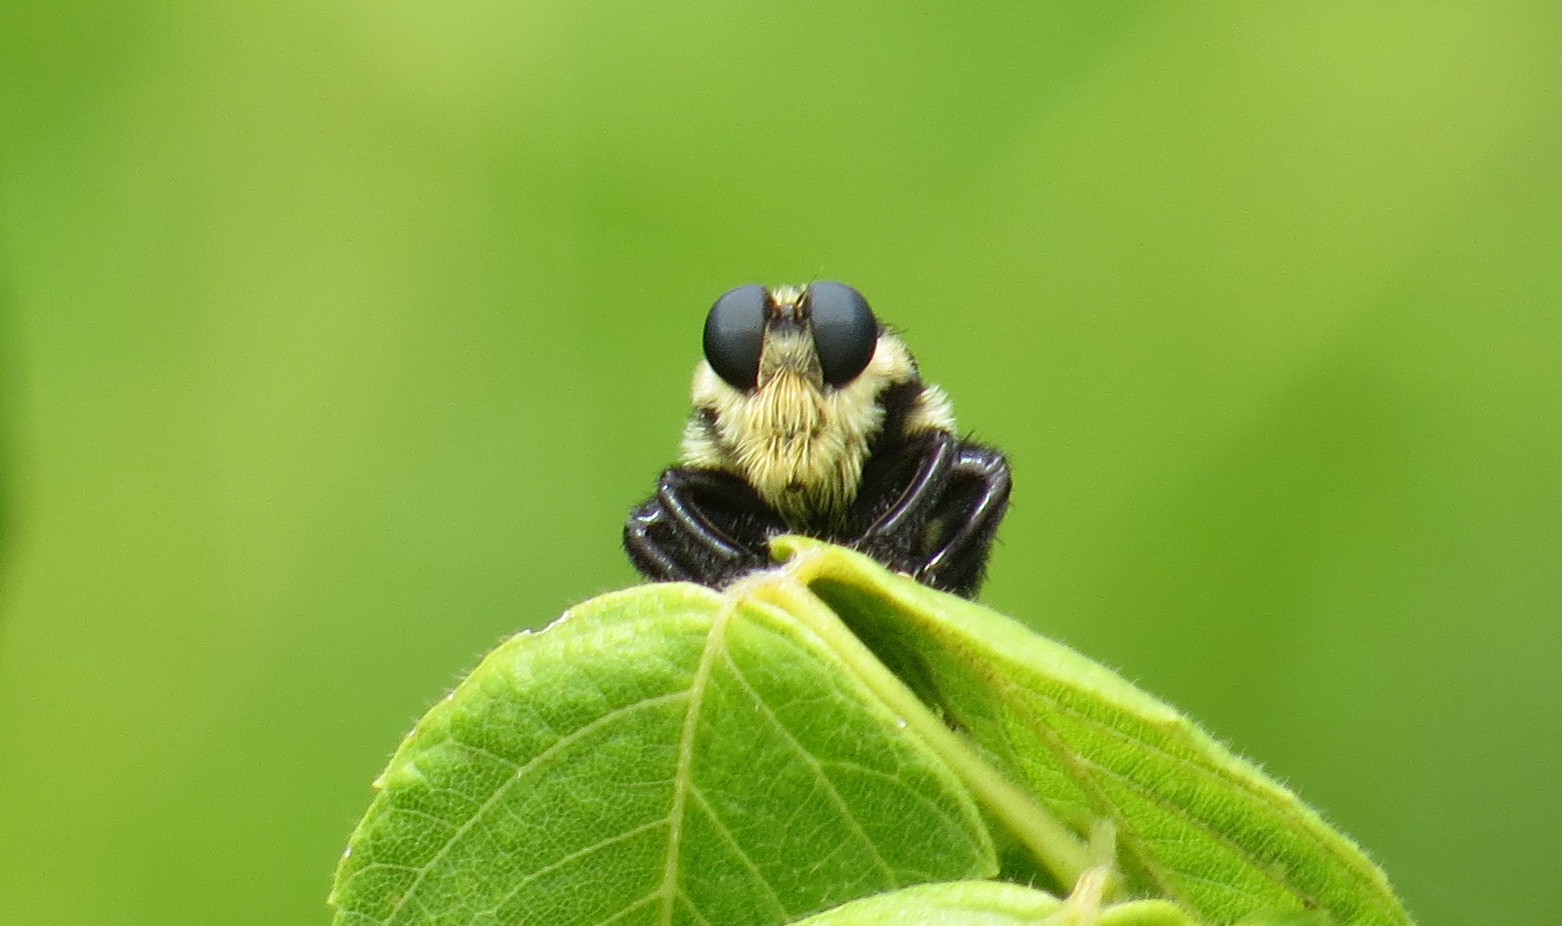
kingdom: Animalia
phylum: Arthropoda
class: Insecta
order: Diptera
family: Asilidae
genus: Mallophora
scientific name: Mallophora orcina
